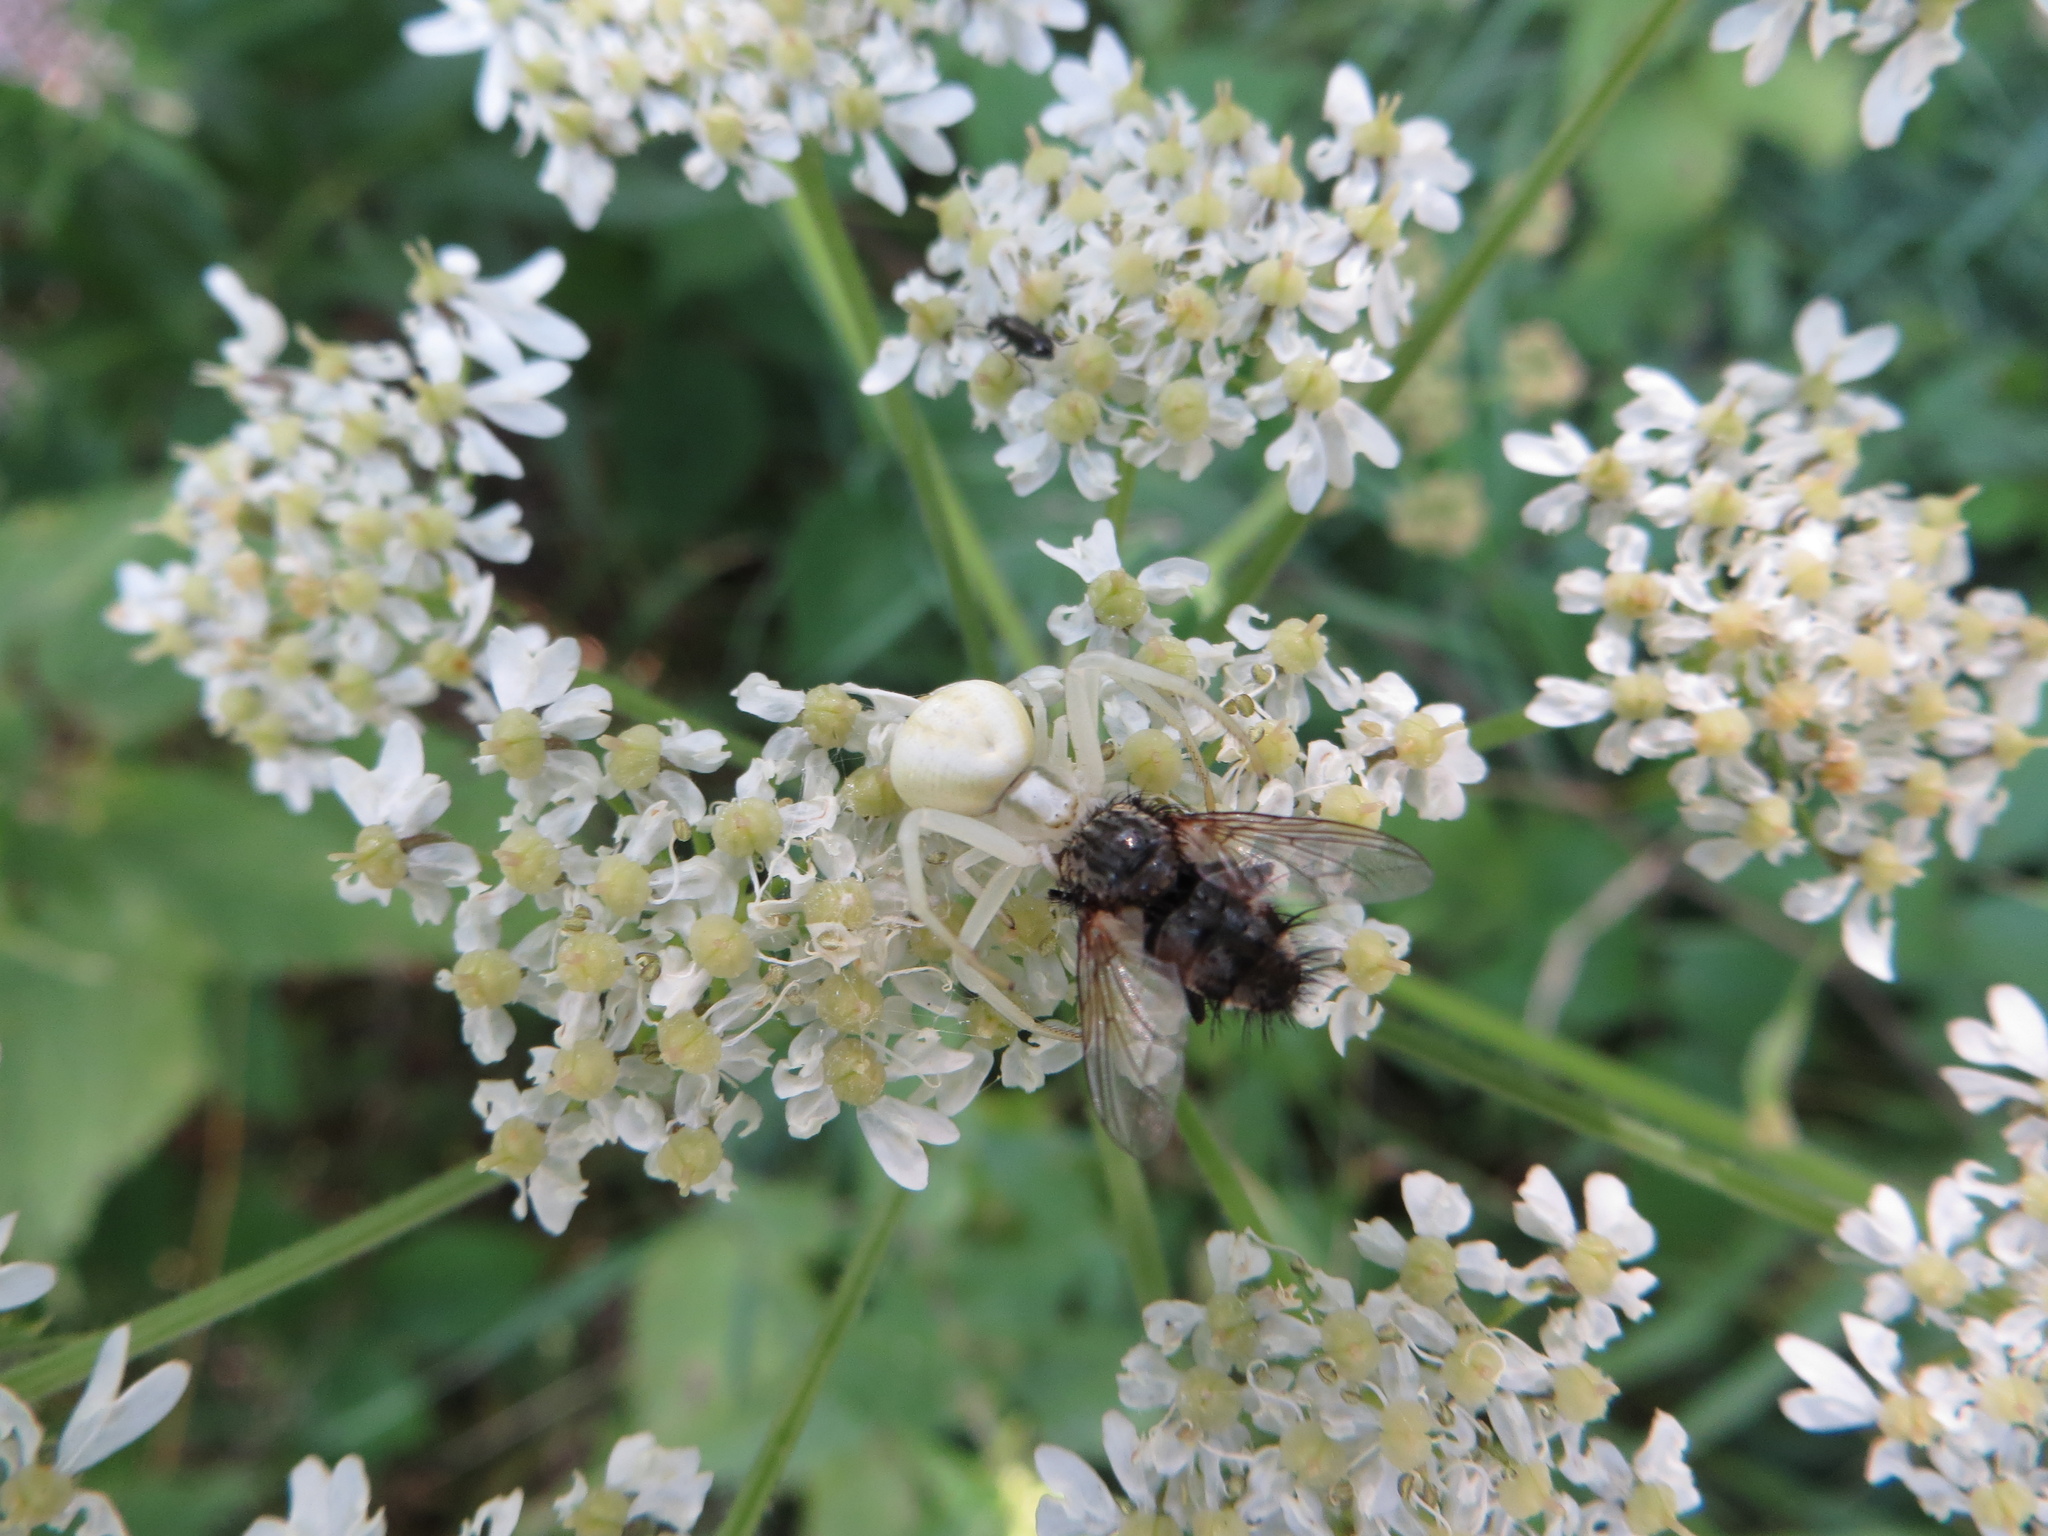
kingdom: Animalia
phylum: Arthropoda
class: Arachnida
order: Araneae
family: Thomisidae
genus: Misumena
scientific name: Misumena vatia
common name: Goldenrod crab spider
